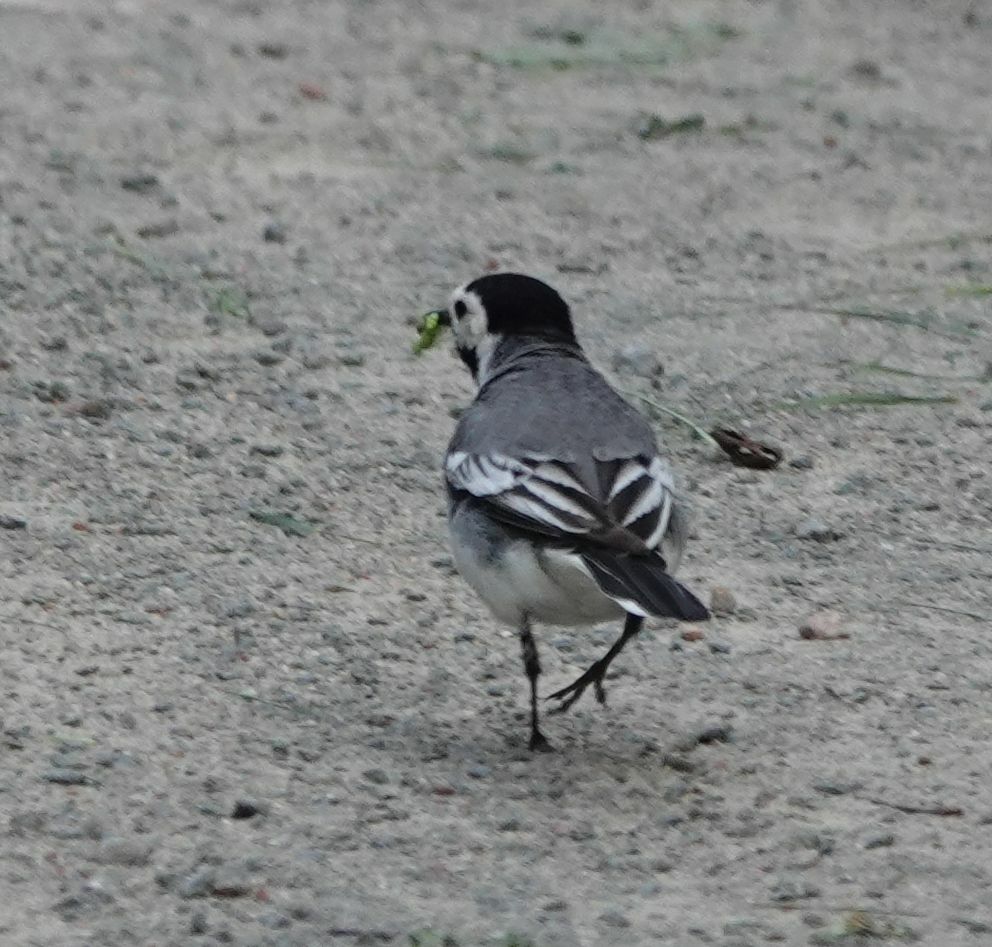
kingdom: Animalia
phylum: Chordata
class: Aves
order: Passeriformes
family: Motacillidae
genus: Motacilla
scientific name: Motacilla alba
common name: White wagtail
